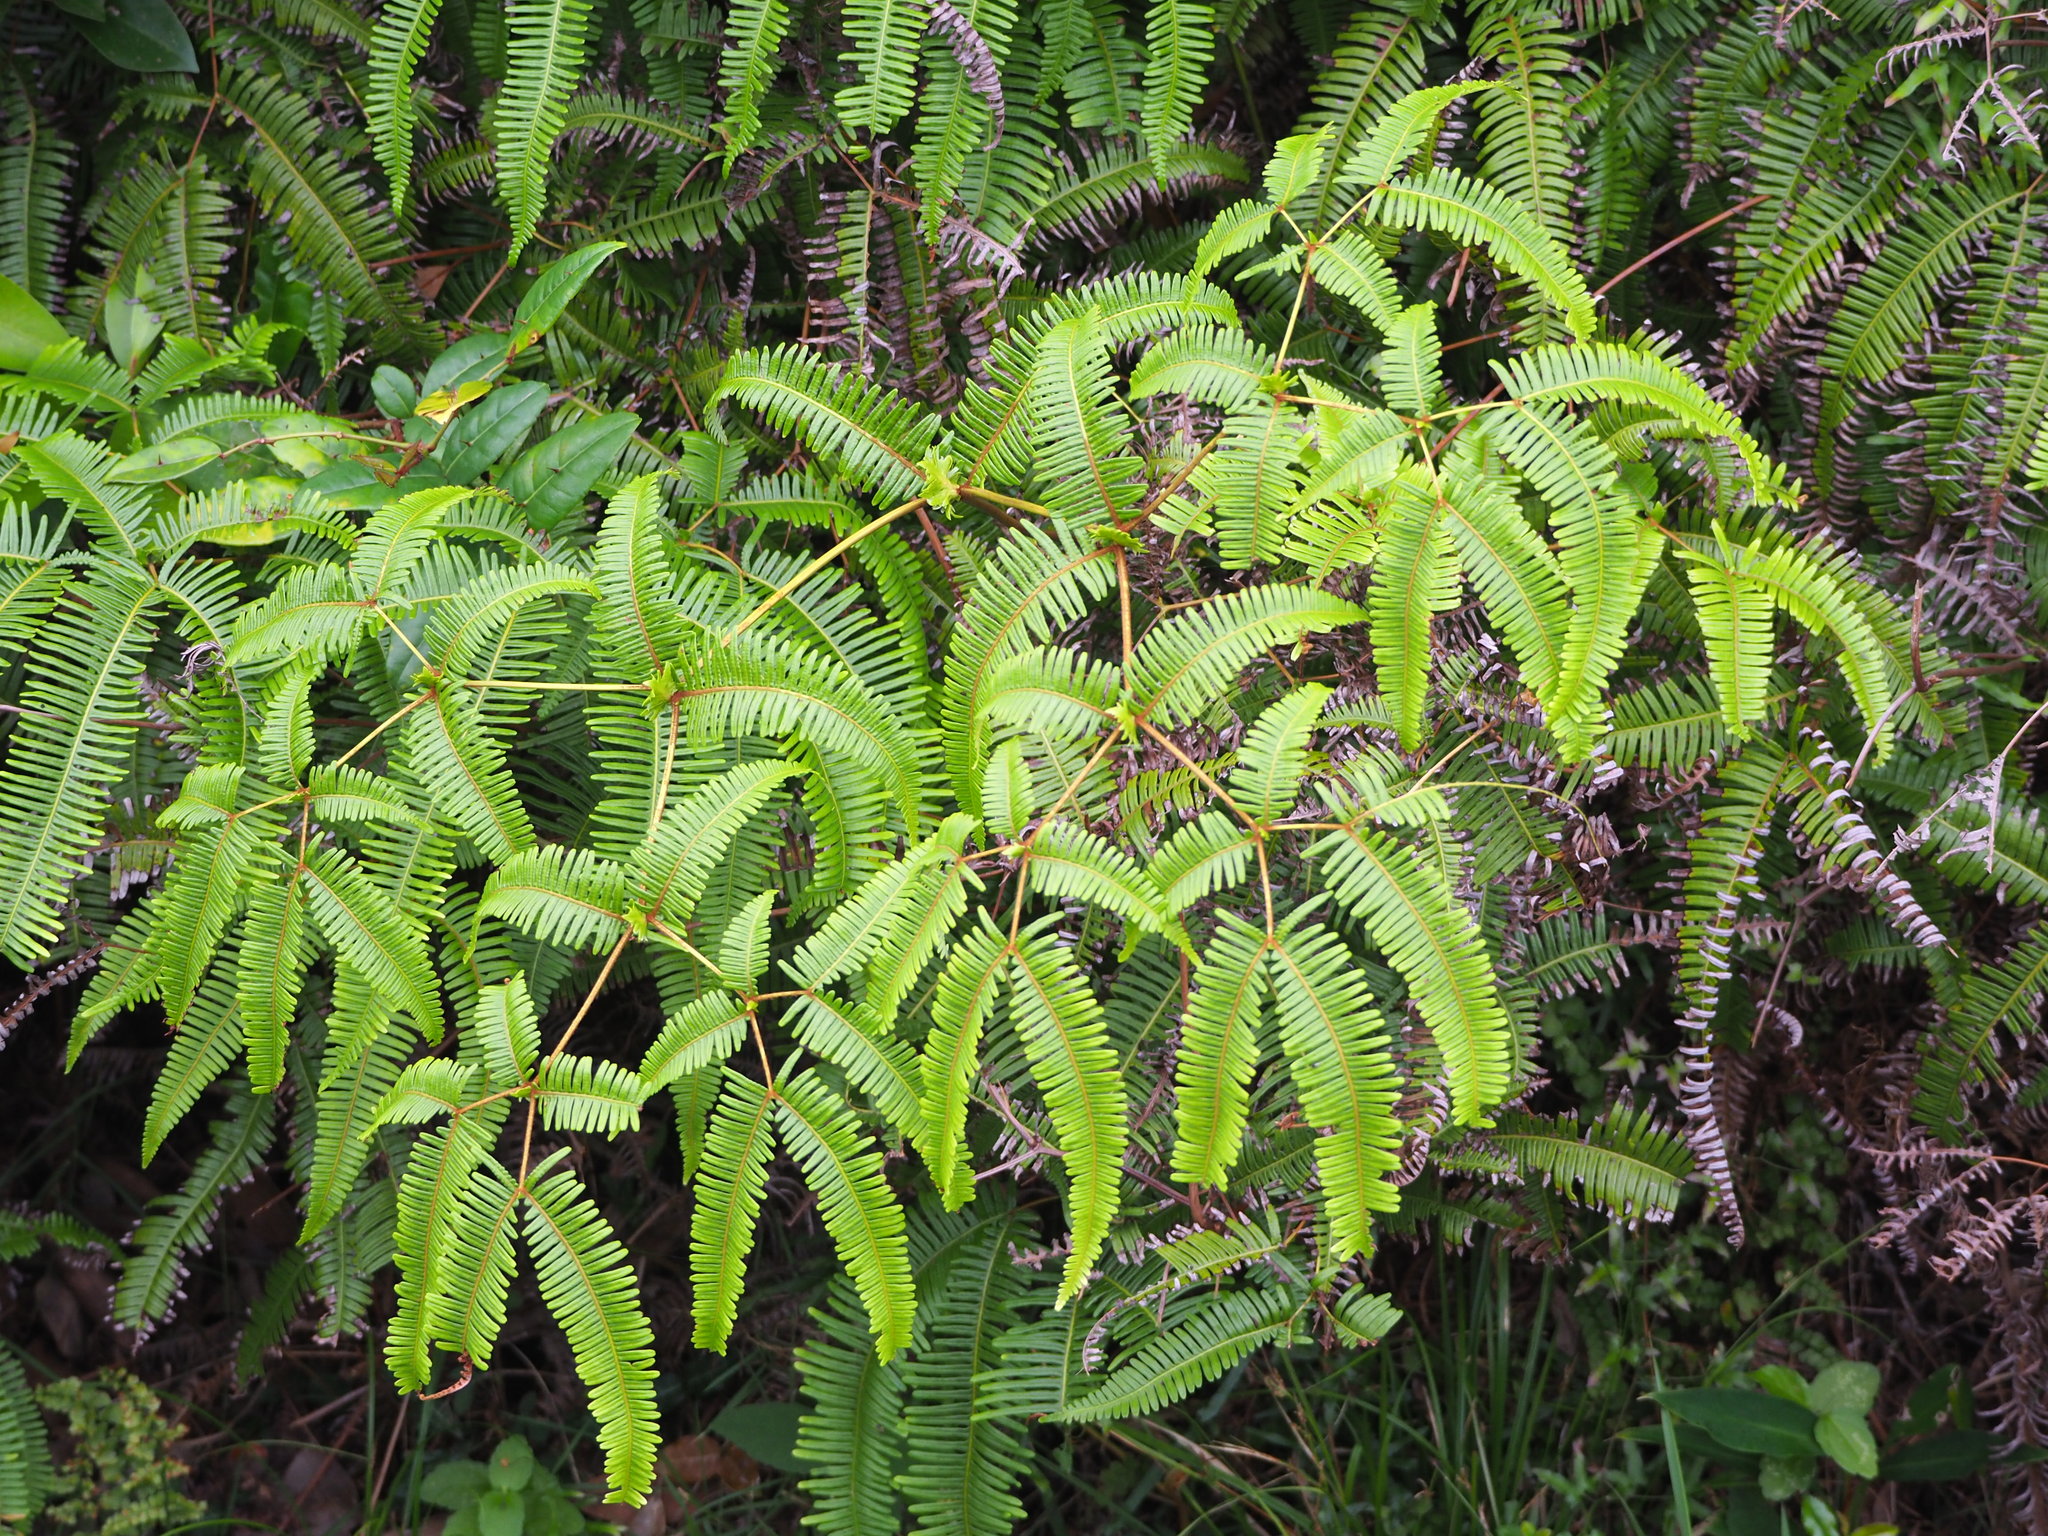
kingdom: Plantae
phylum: Tracheophyta
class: Polypodiopsida
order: Gleicheniales
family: Gleicheniaceae
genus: Dicranopteris
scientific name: Dicranopteris linearis
